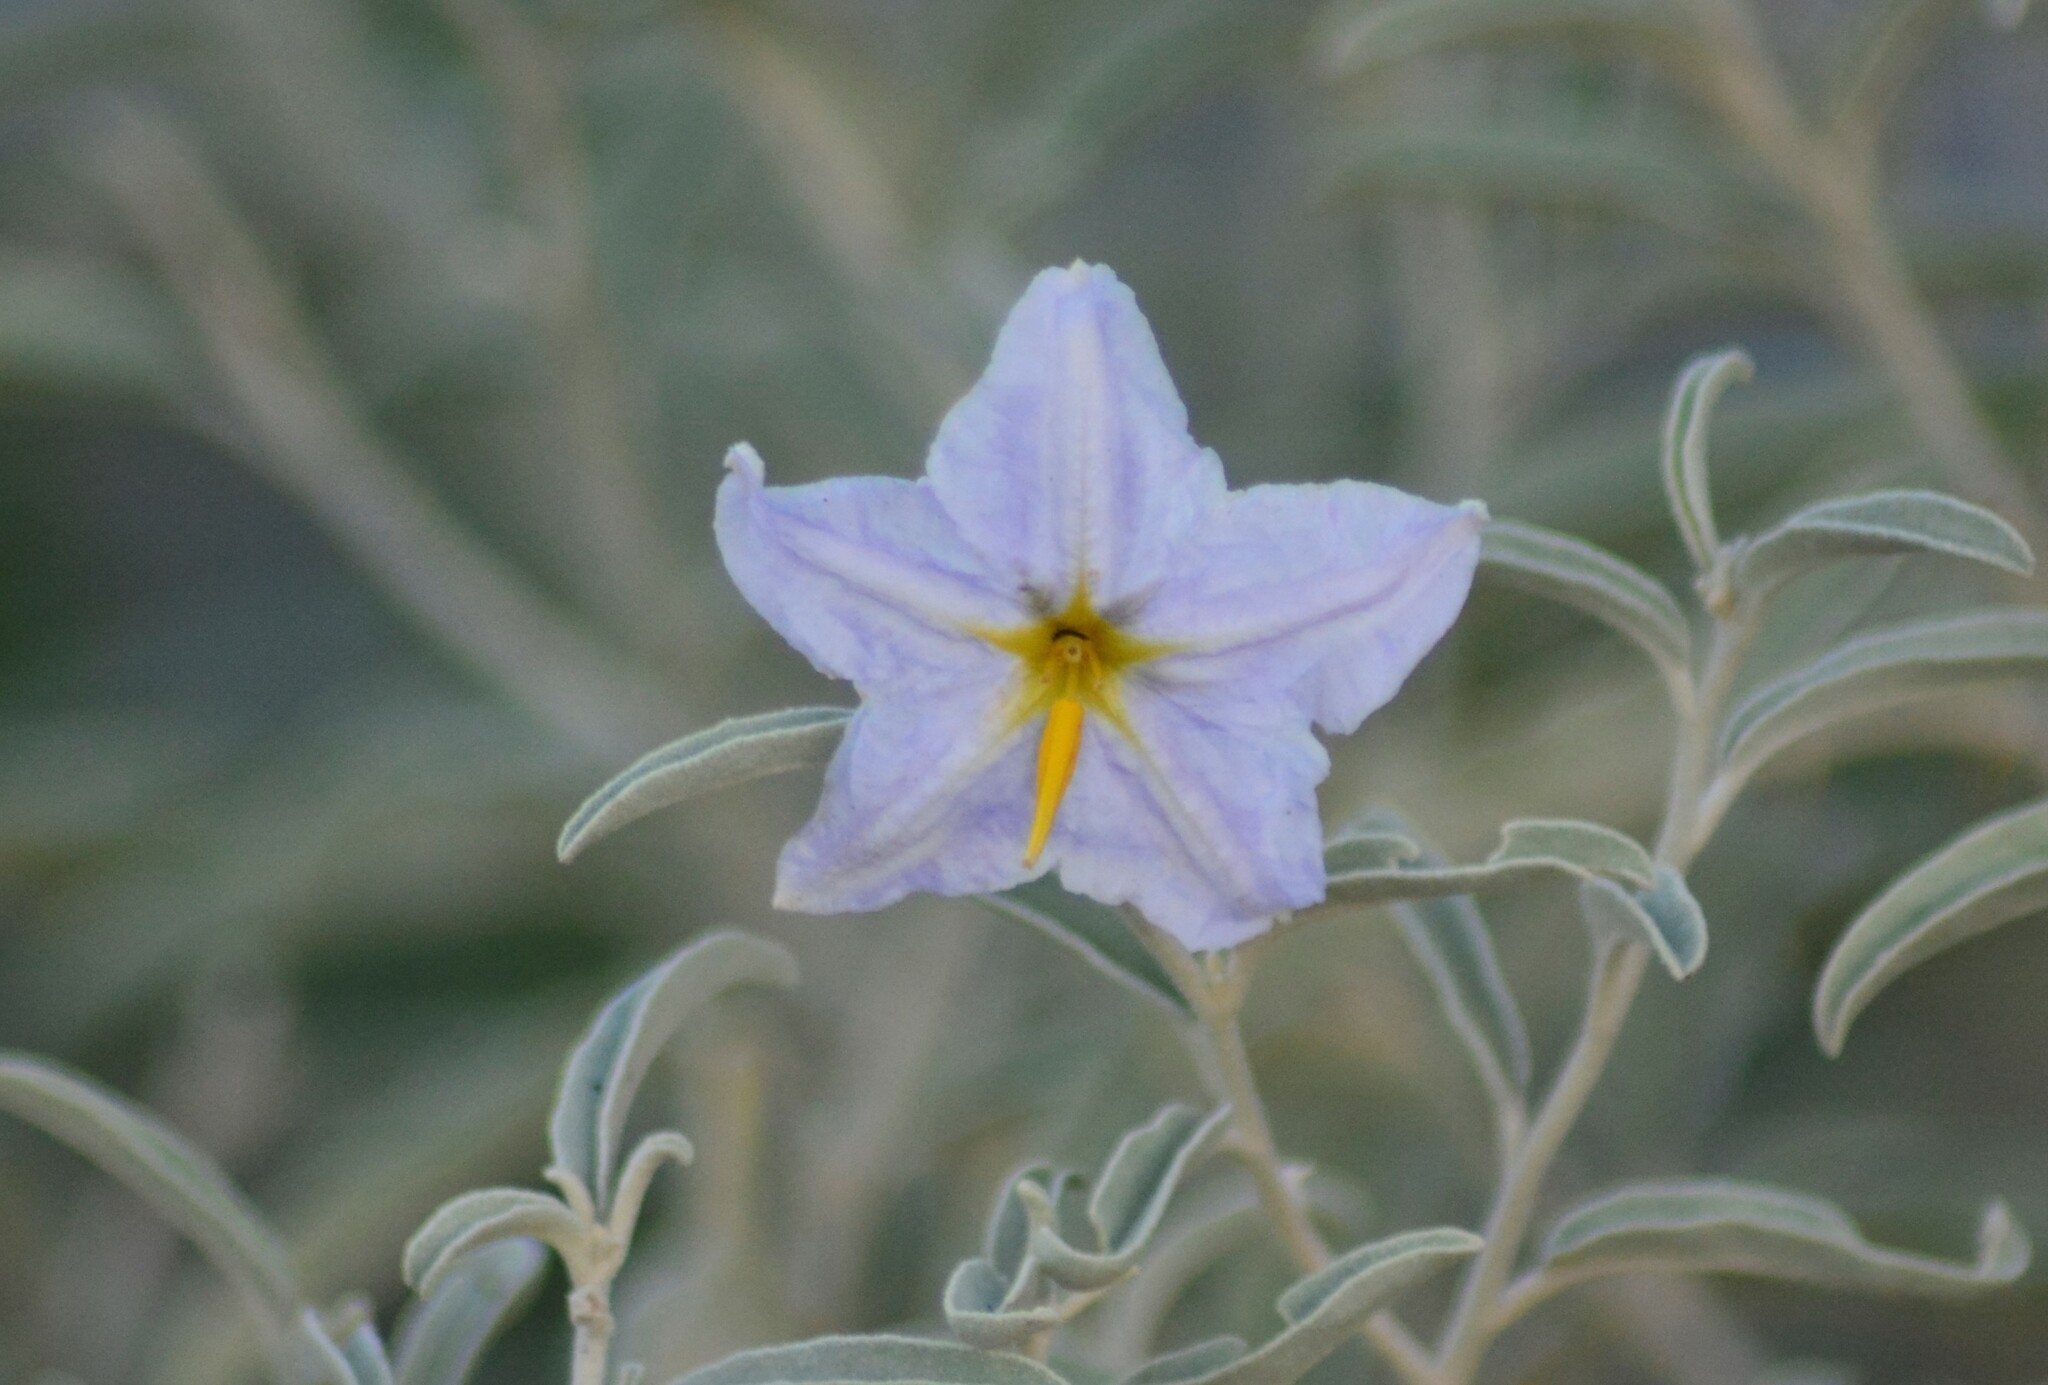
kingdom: Plantae
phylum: Tracheophyta
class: Magnoliopsida
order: Solanales
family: Solanaceae
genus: Solanum
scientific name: Solanum elaeagnifolium
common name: Silverleaf nightshade
